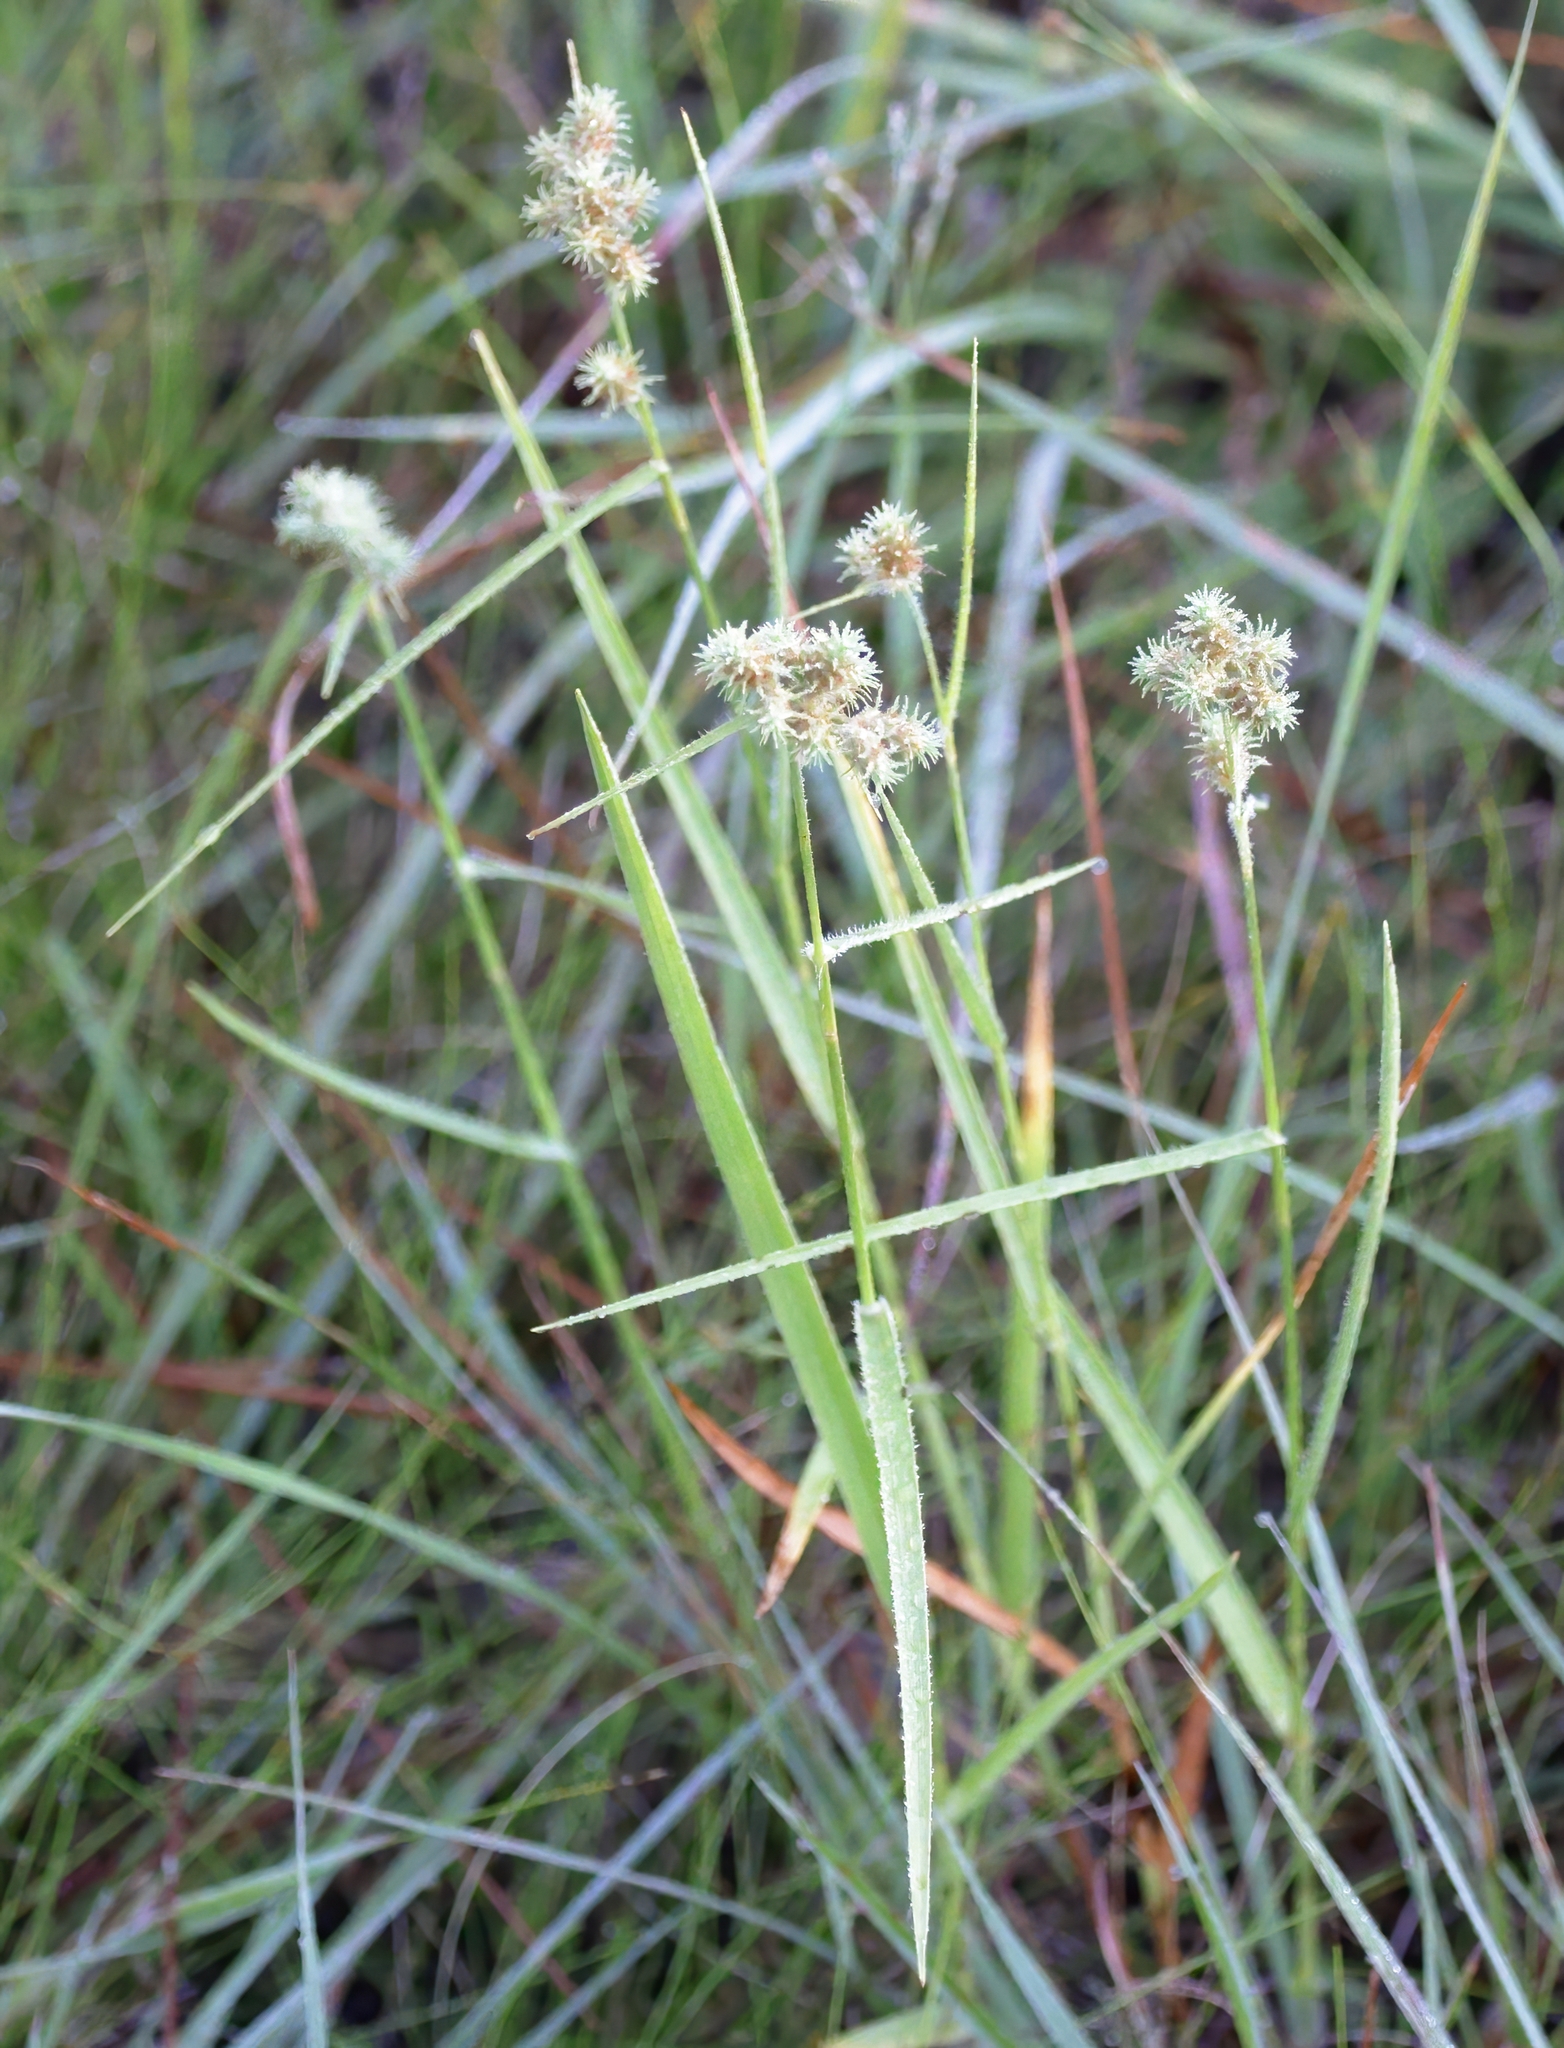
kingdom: Plantae
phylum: Tracheophyta
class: Liliopsida
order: Poales
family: Cyperaceae
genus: Fuirena
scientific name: Fuirena breviseta
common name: Saltmarsh umbrella sedge
